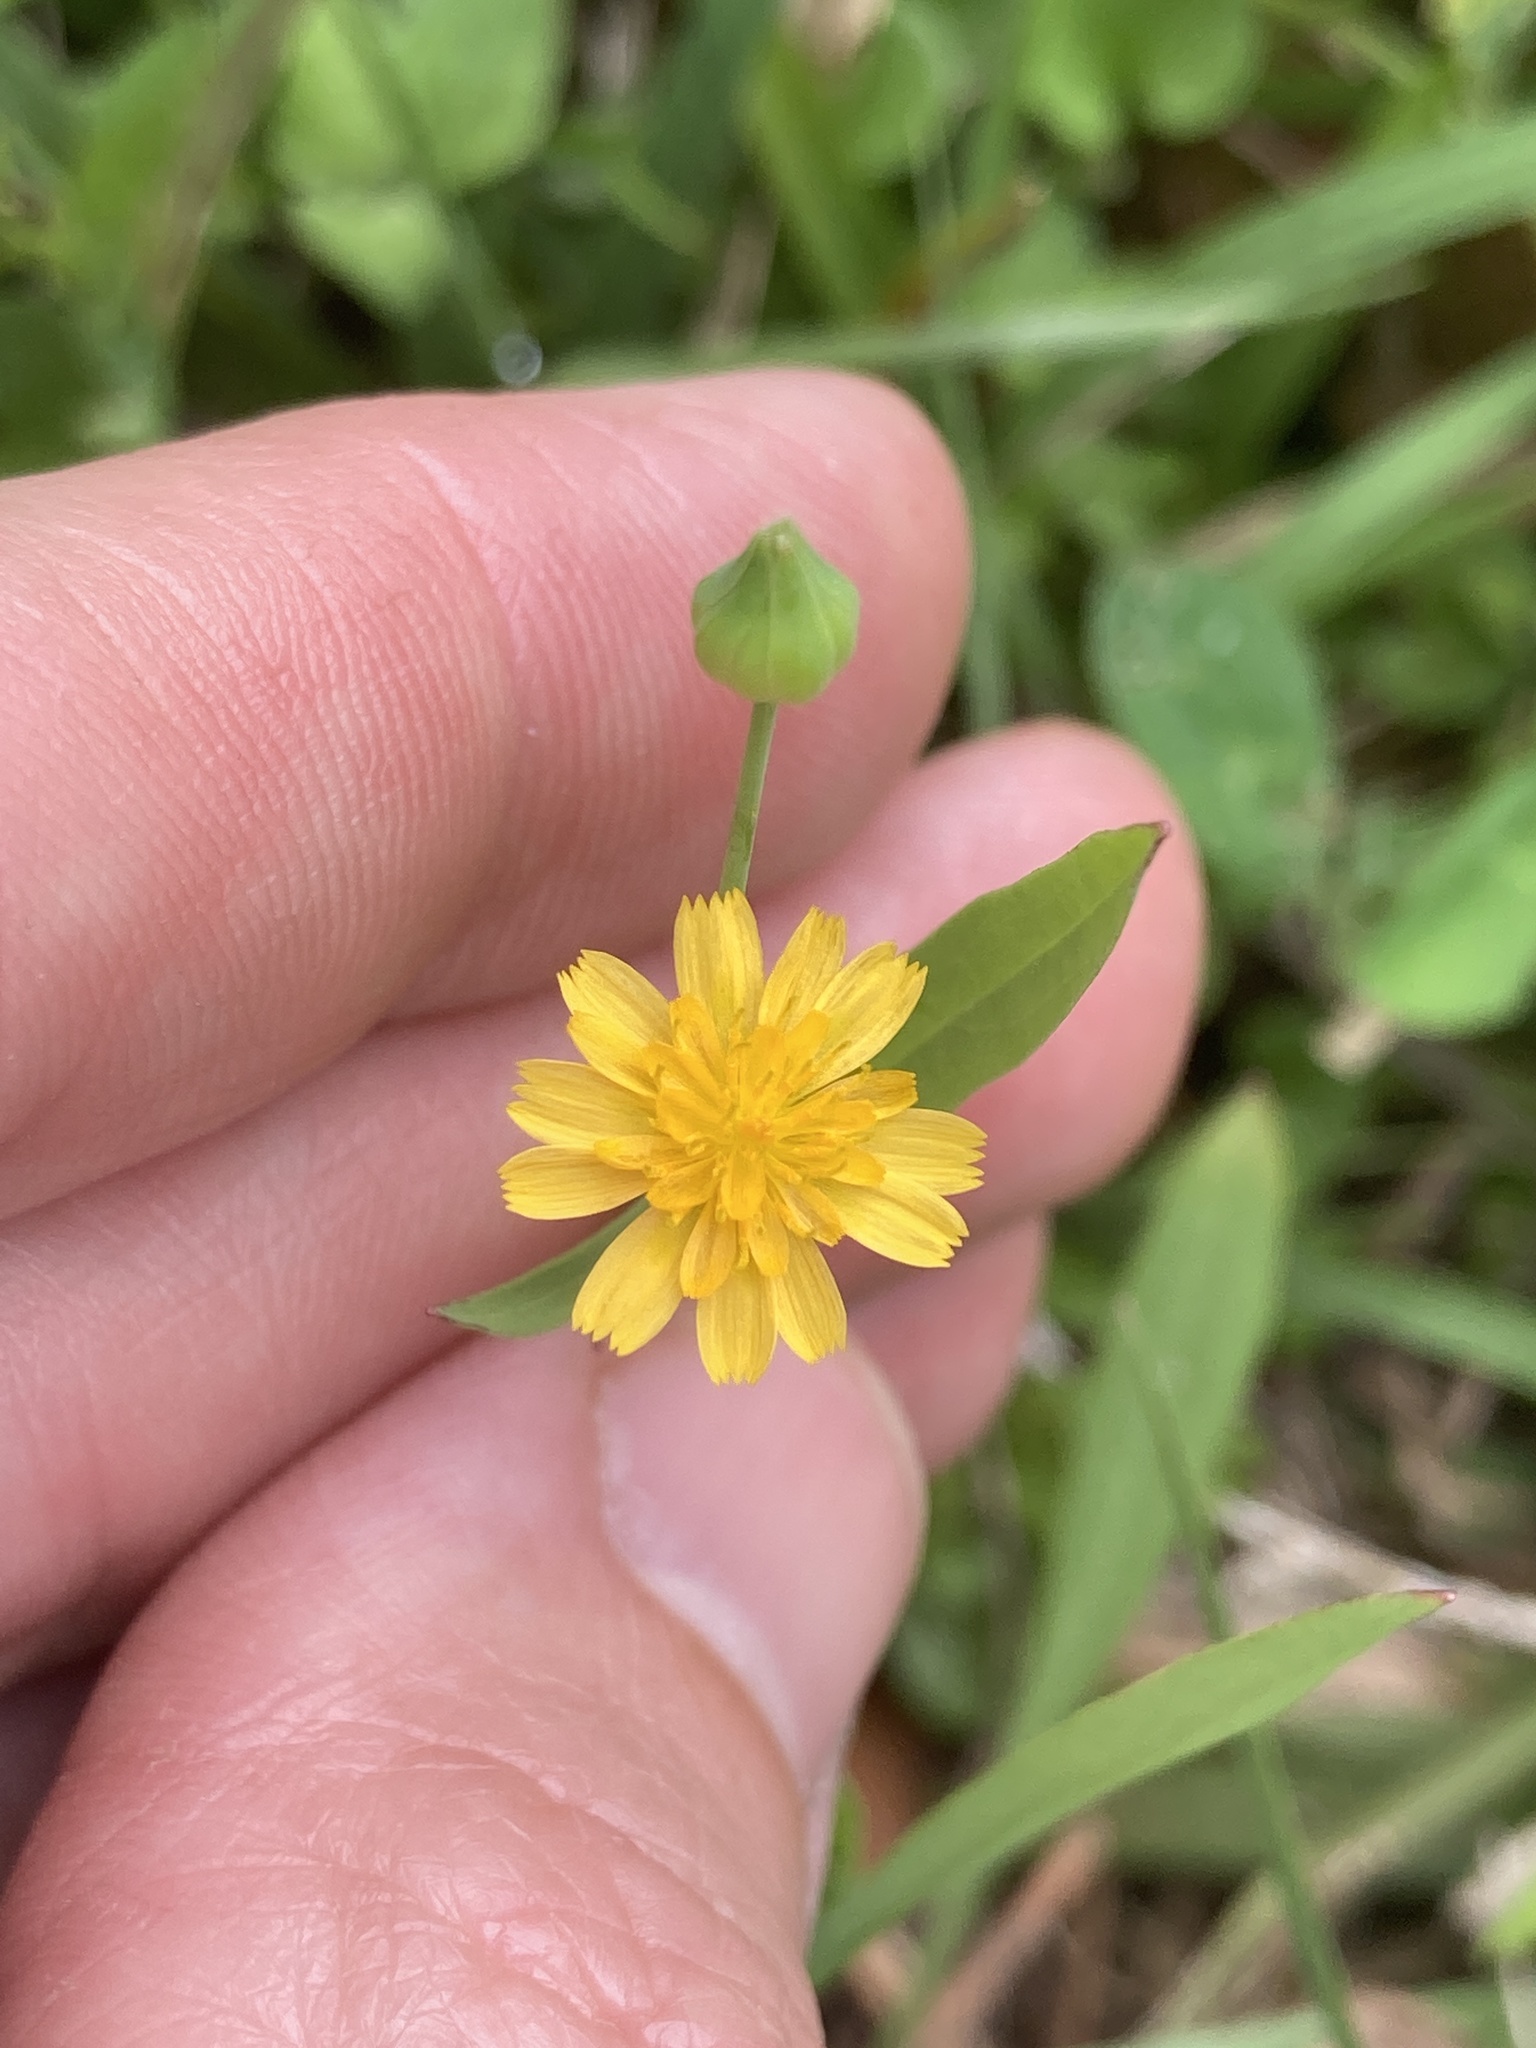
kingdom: Plantae
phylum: Tracheophyta
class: Magnoliopsida
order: Asterales
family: Asteraceae
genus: Krigia
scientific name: Krigia cespitosa
